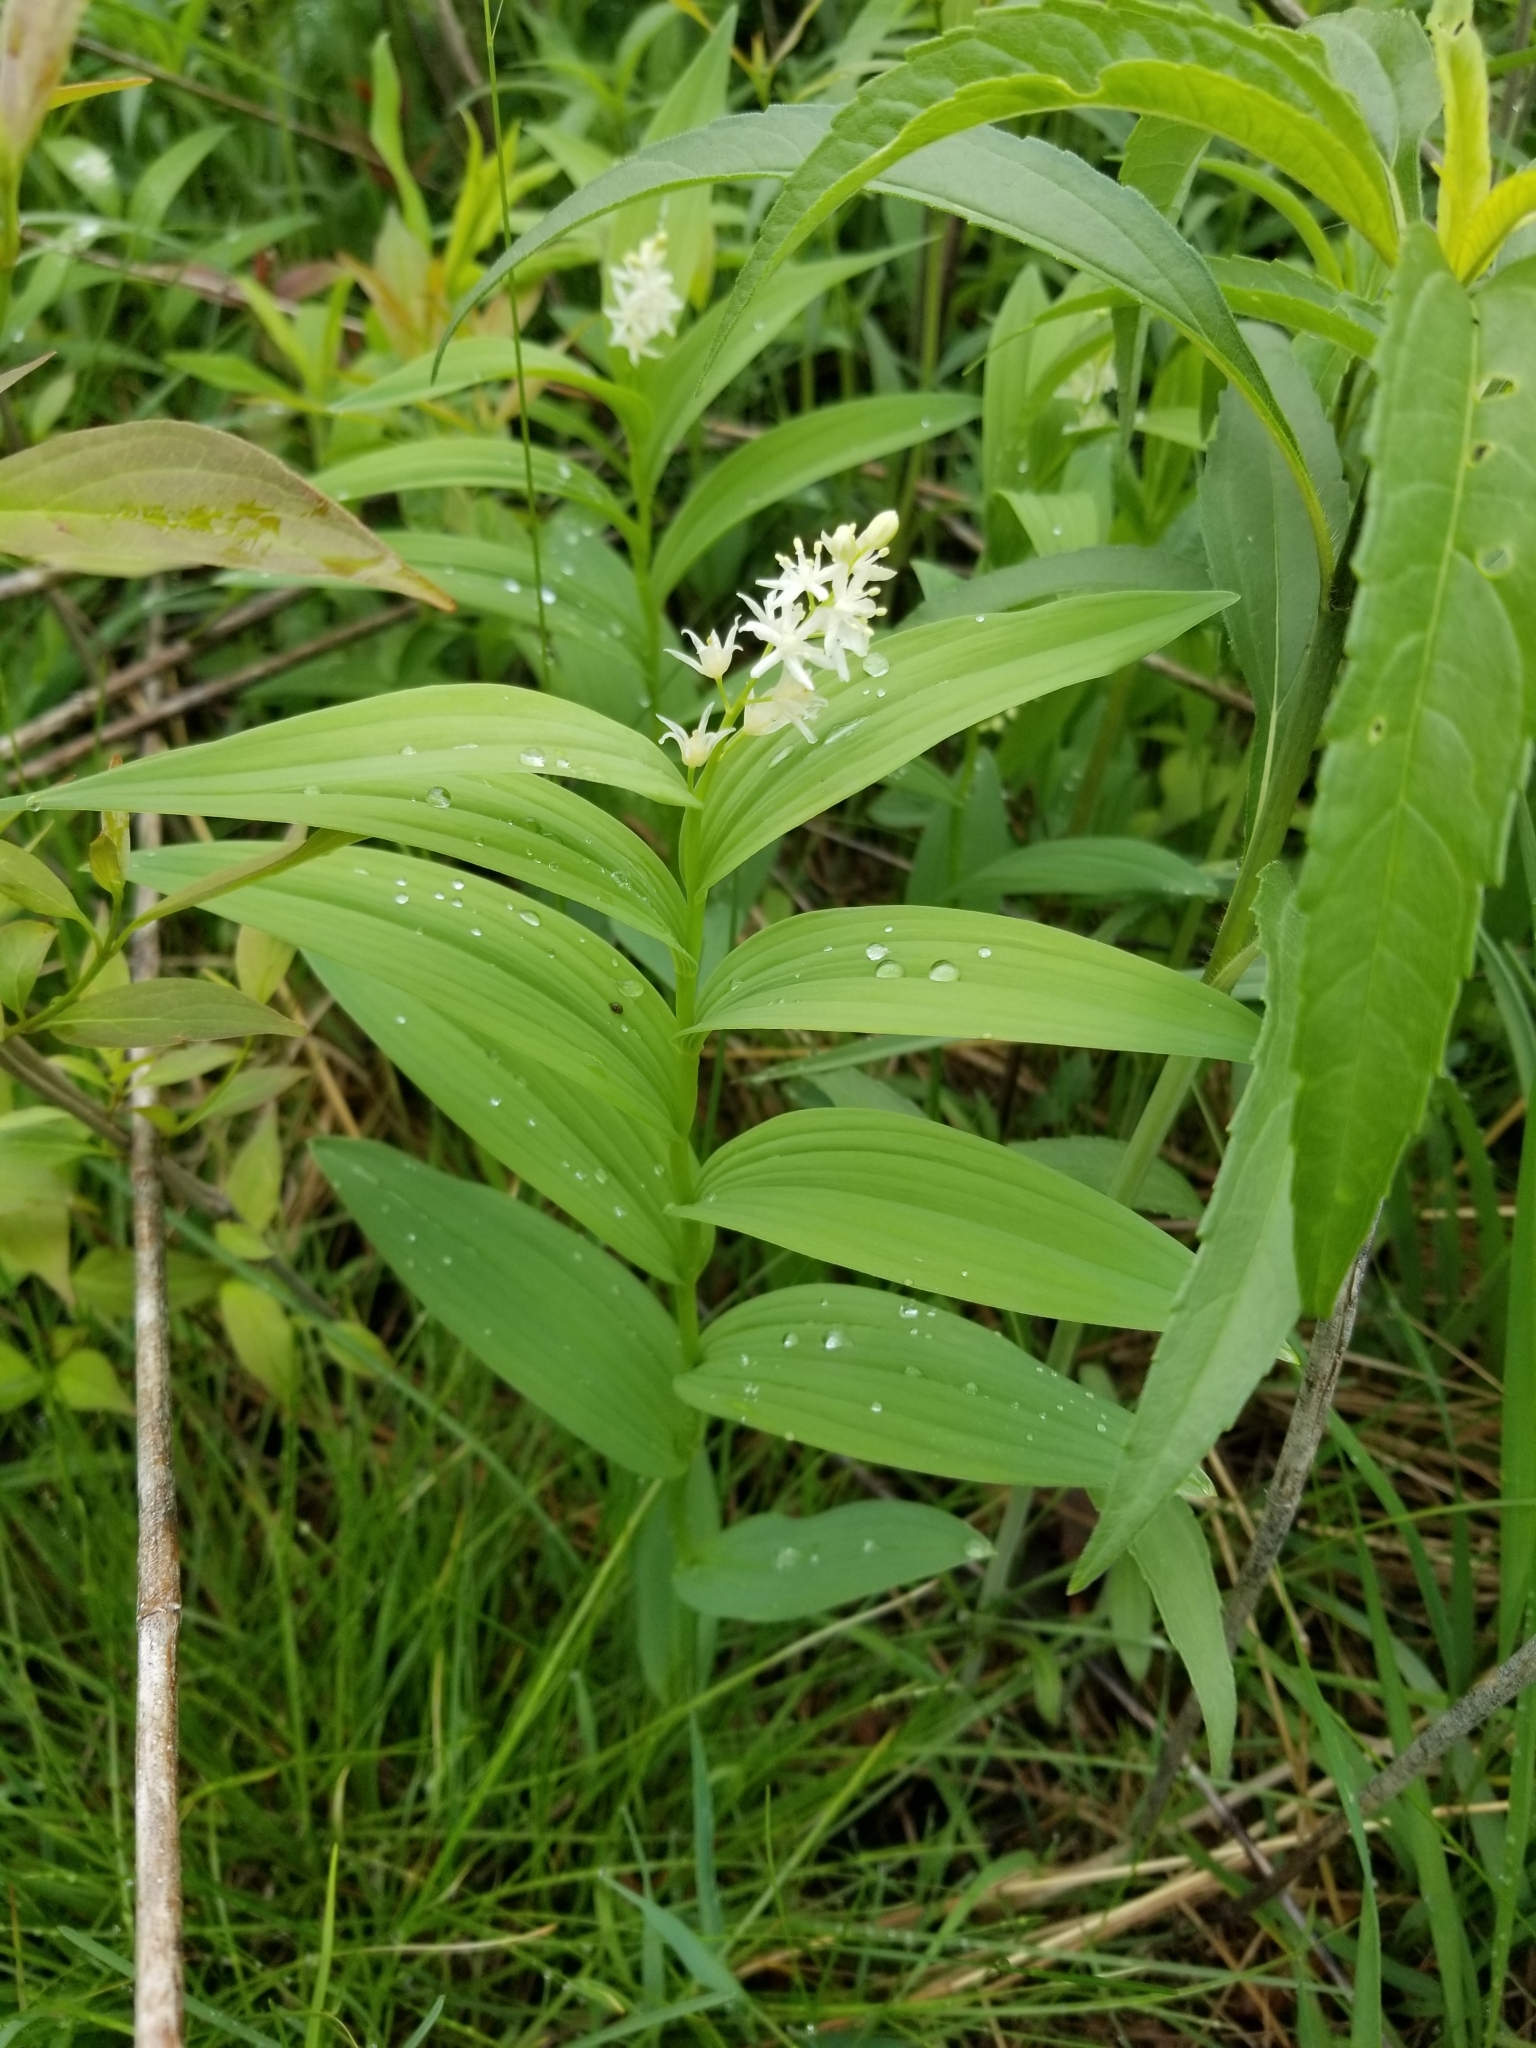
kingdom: Plantae
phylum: Tracheophyta
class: Liliopsida
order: Asparagales
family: Asparagaceae
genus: Maianthemum
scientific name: Maianthemum stellatum
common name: Little false solomon's seal
